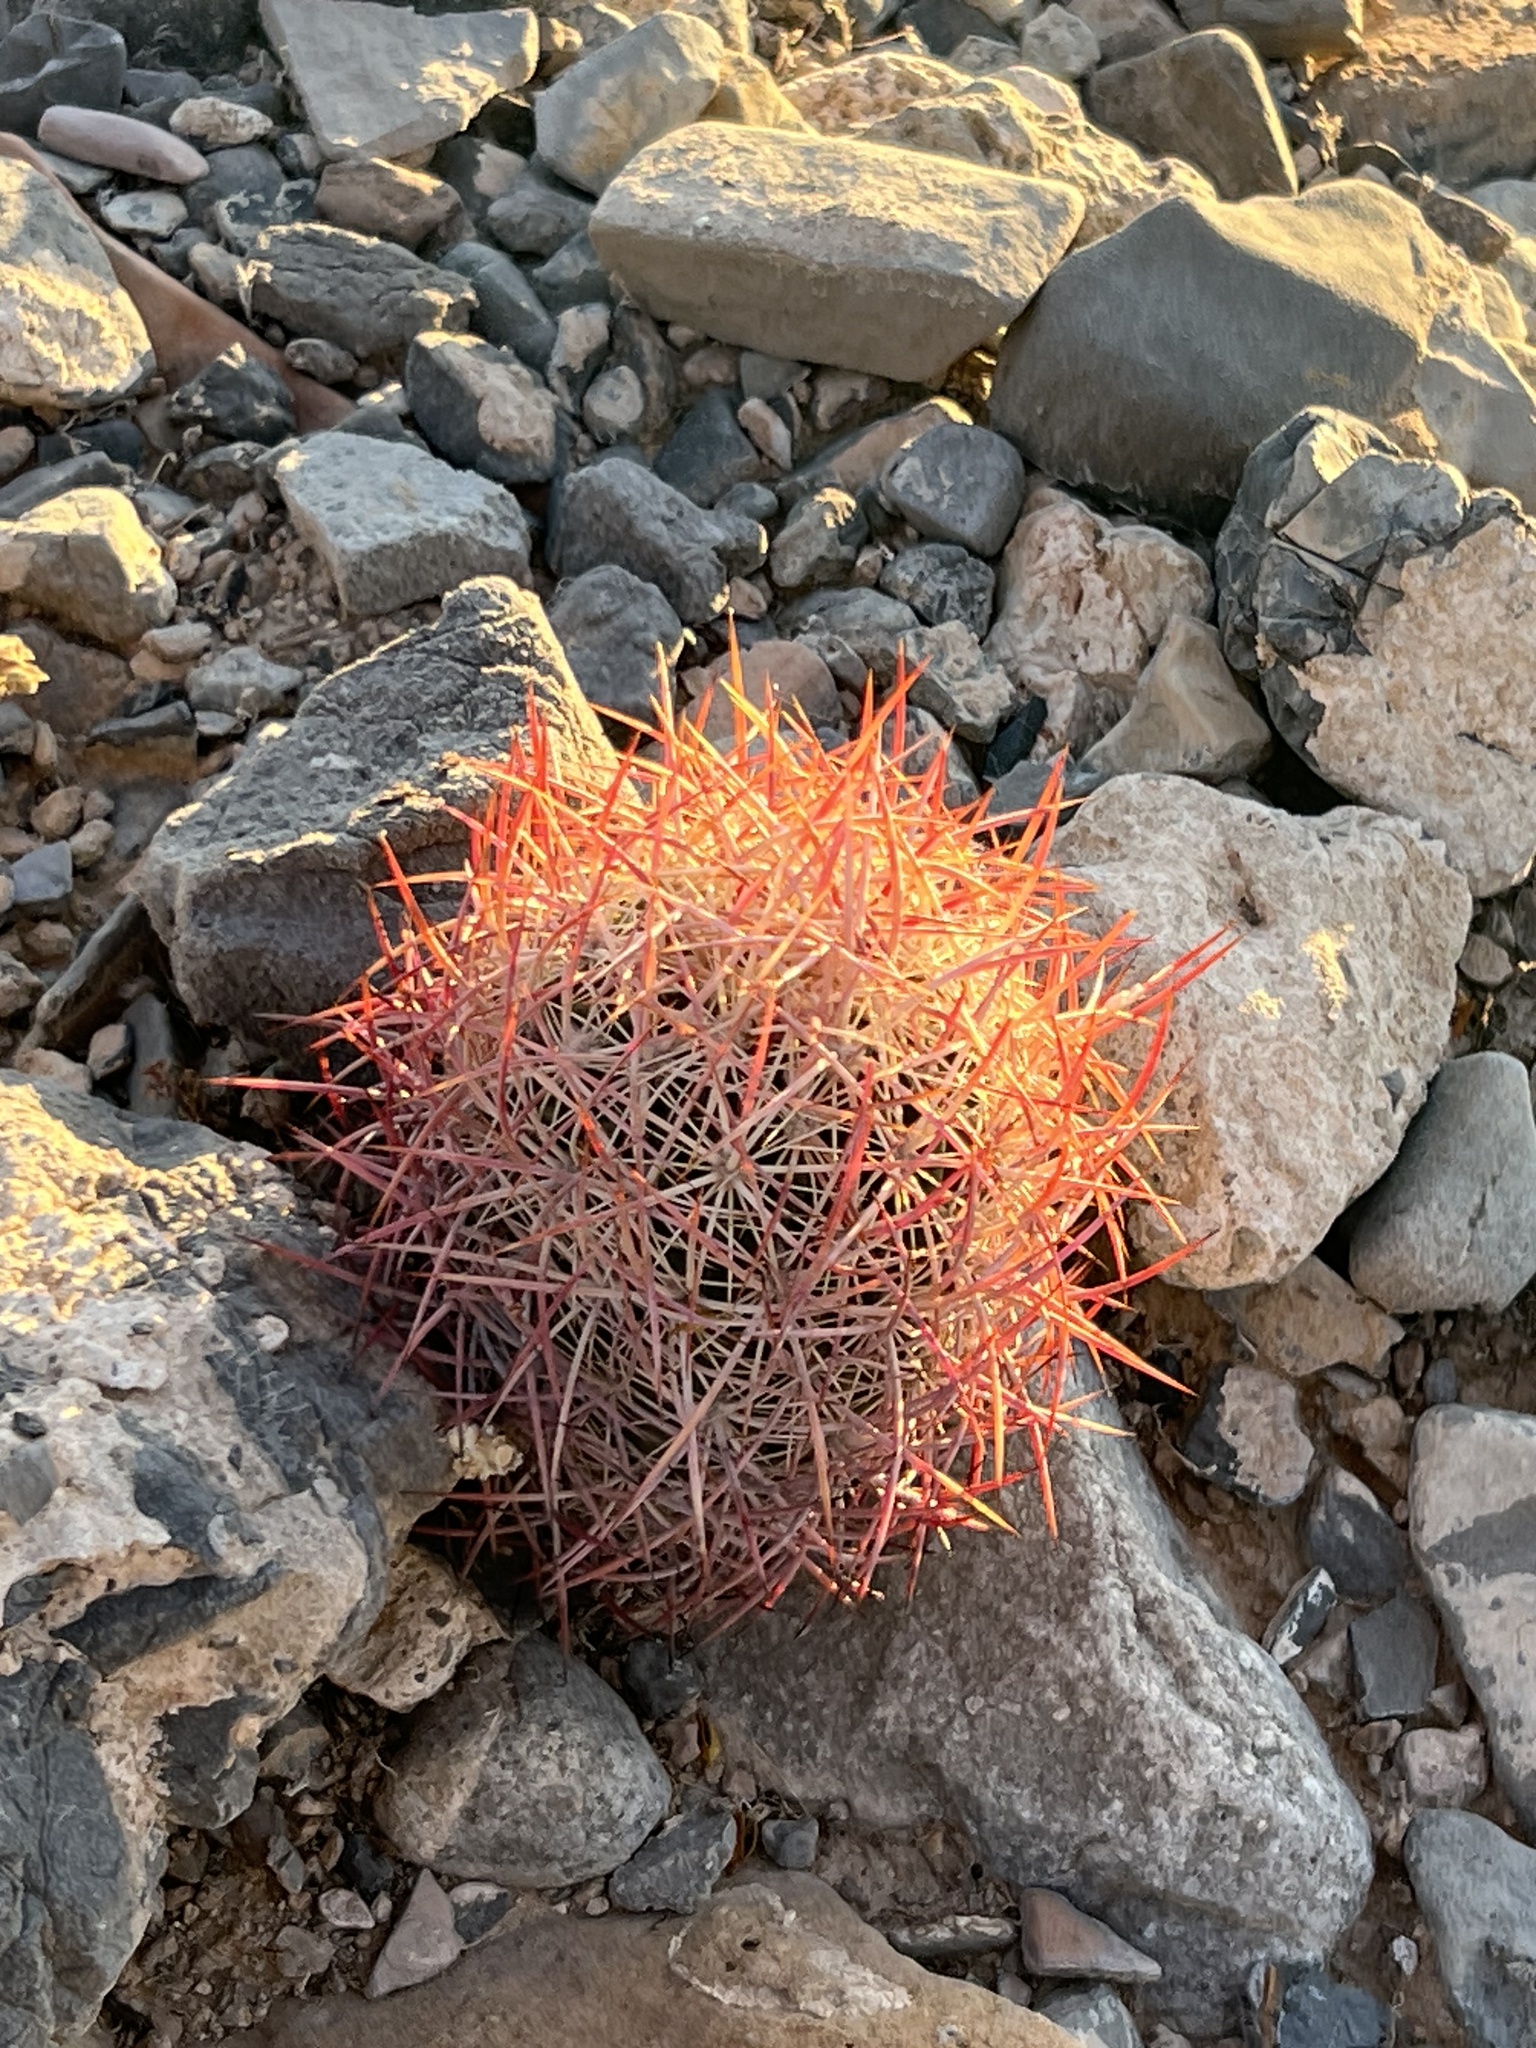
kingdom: Plantae
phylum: Tracheophyta
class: Magnoliopsida
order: Caryophyllales
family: Cactaceae
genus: Sclerocactus
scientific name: Sclerocactus johnsonii
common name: Eight-spine fishhook cactus
